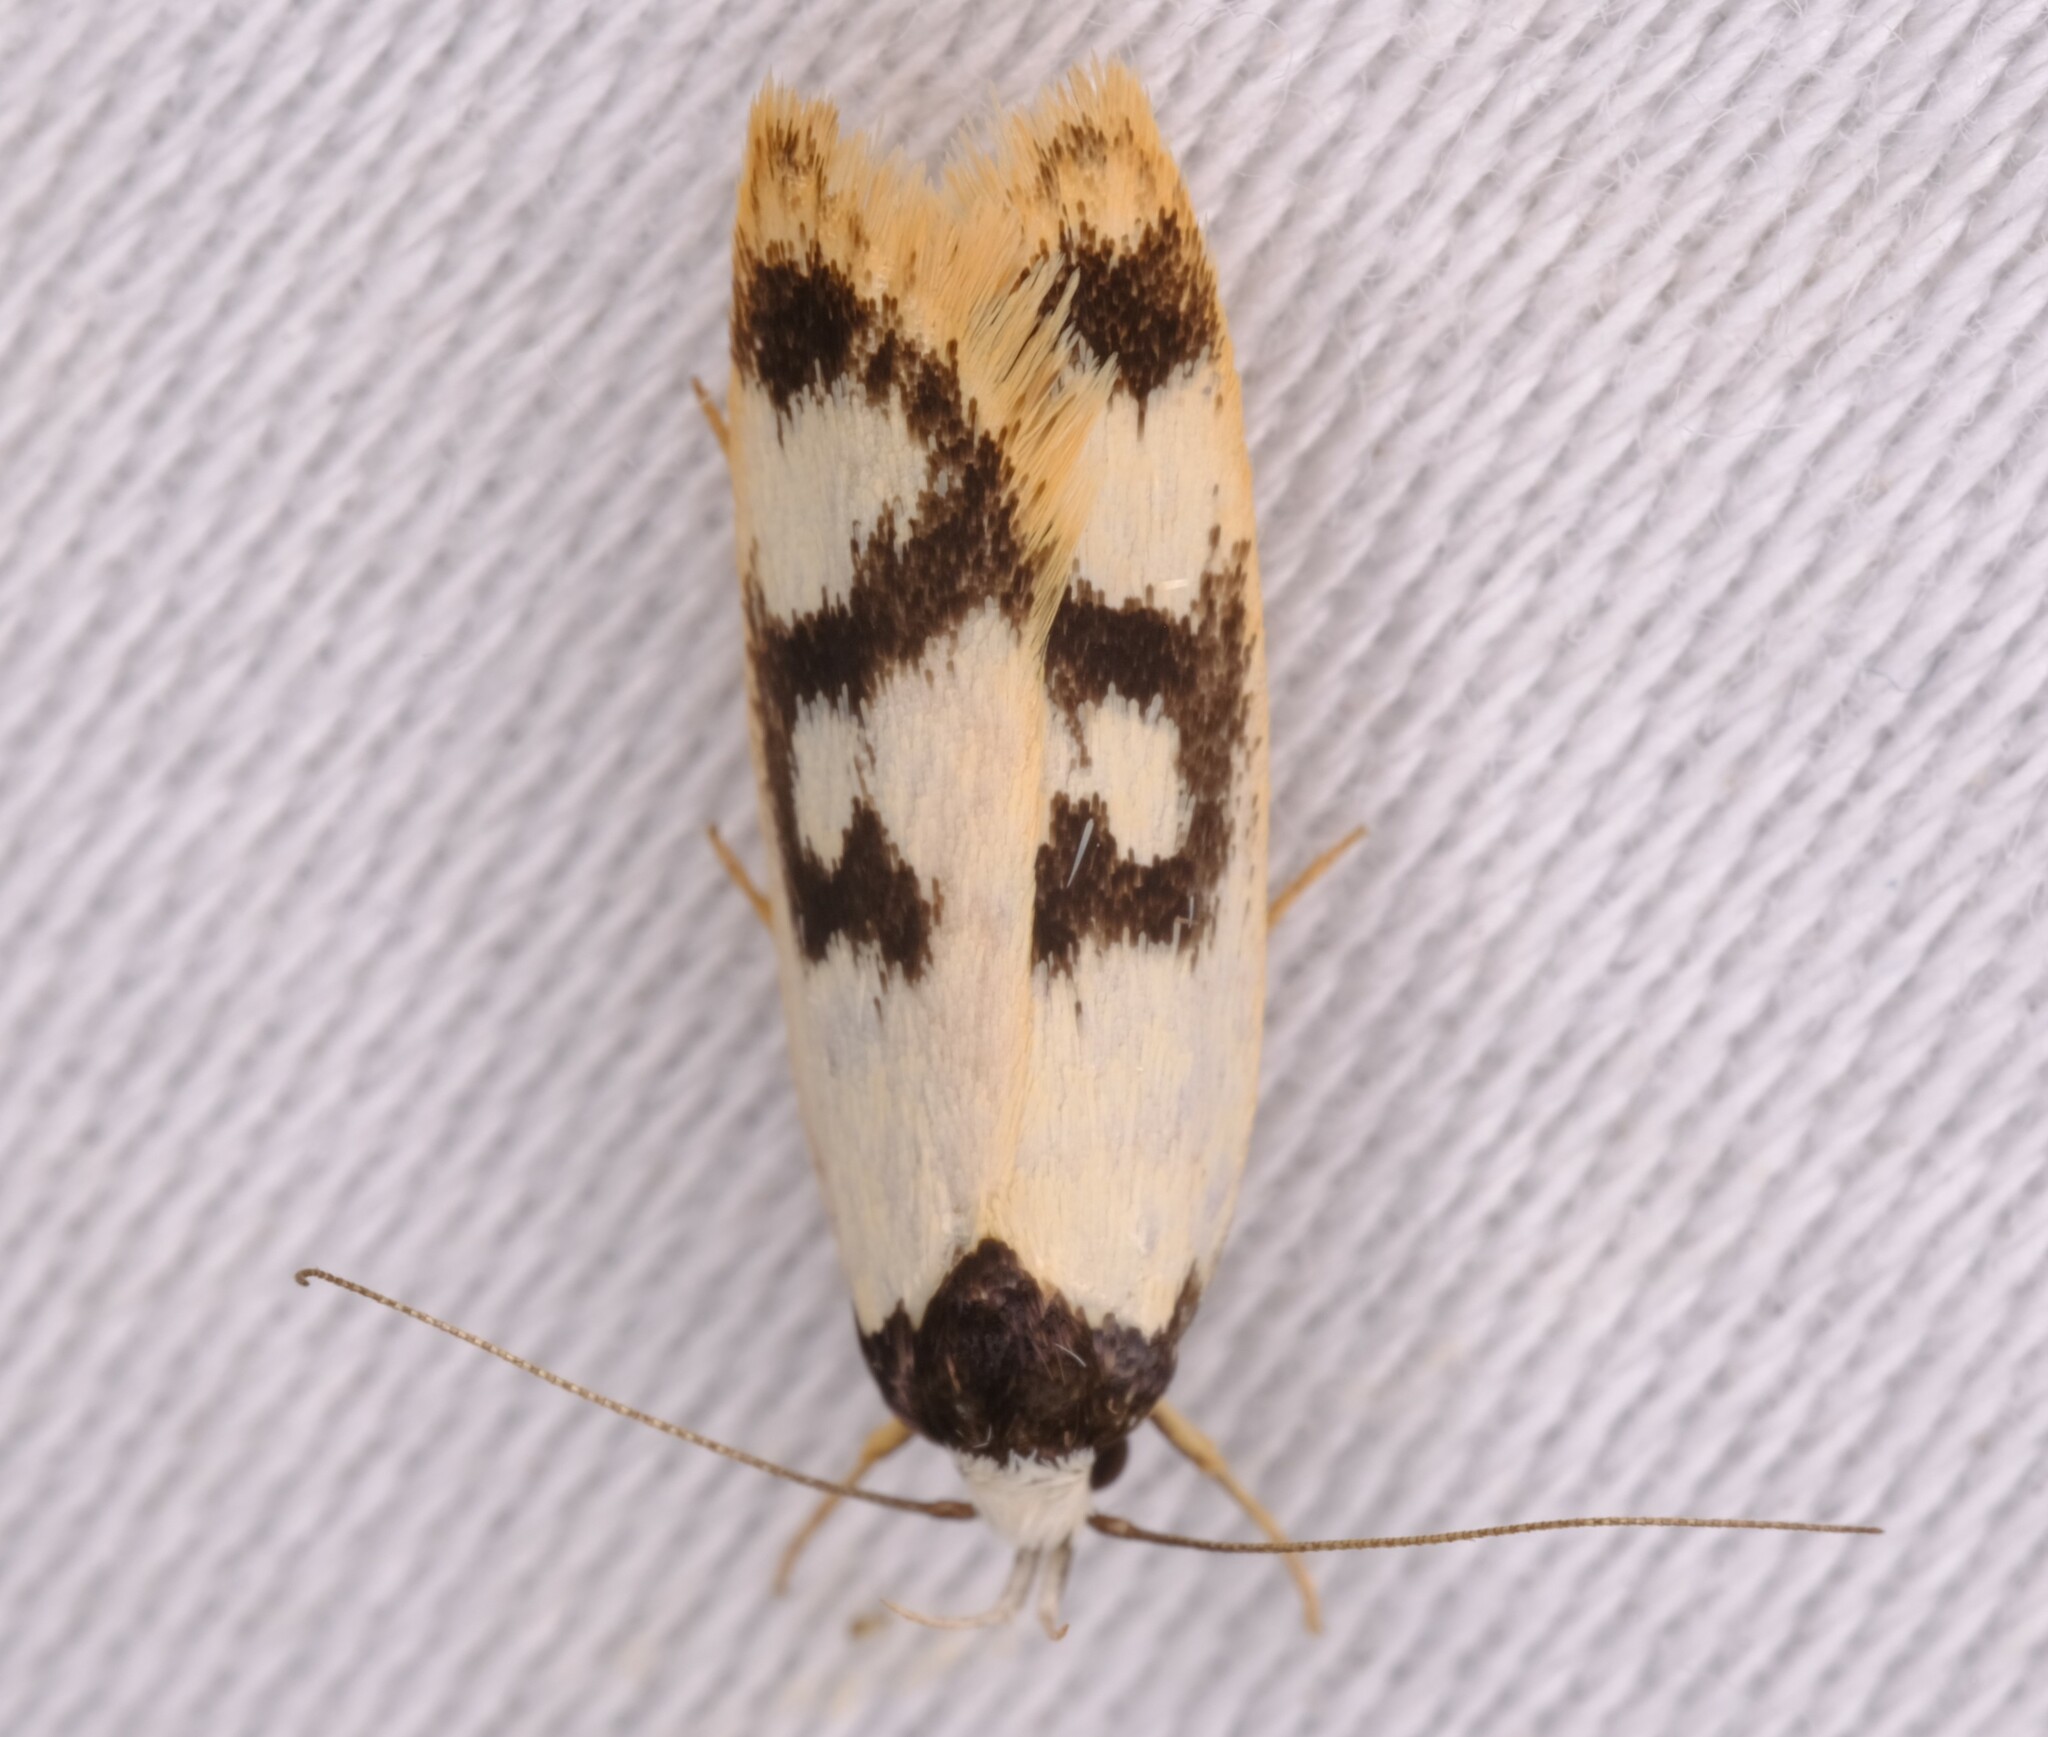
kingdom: Animalia
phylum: Arthropoda
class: Insecta
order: Lepidoptera
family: Oecophoridae
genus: Eulechria
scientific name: Eulechria sigmophora
